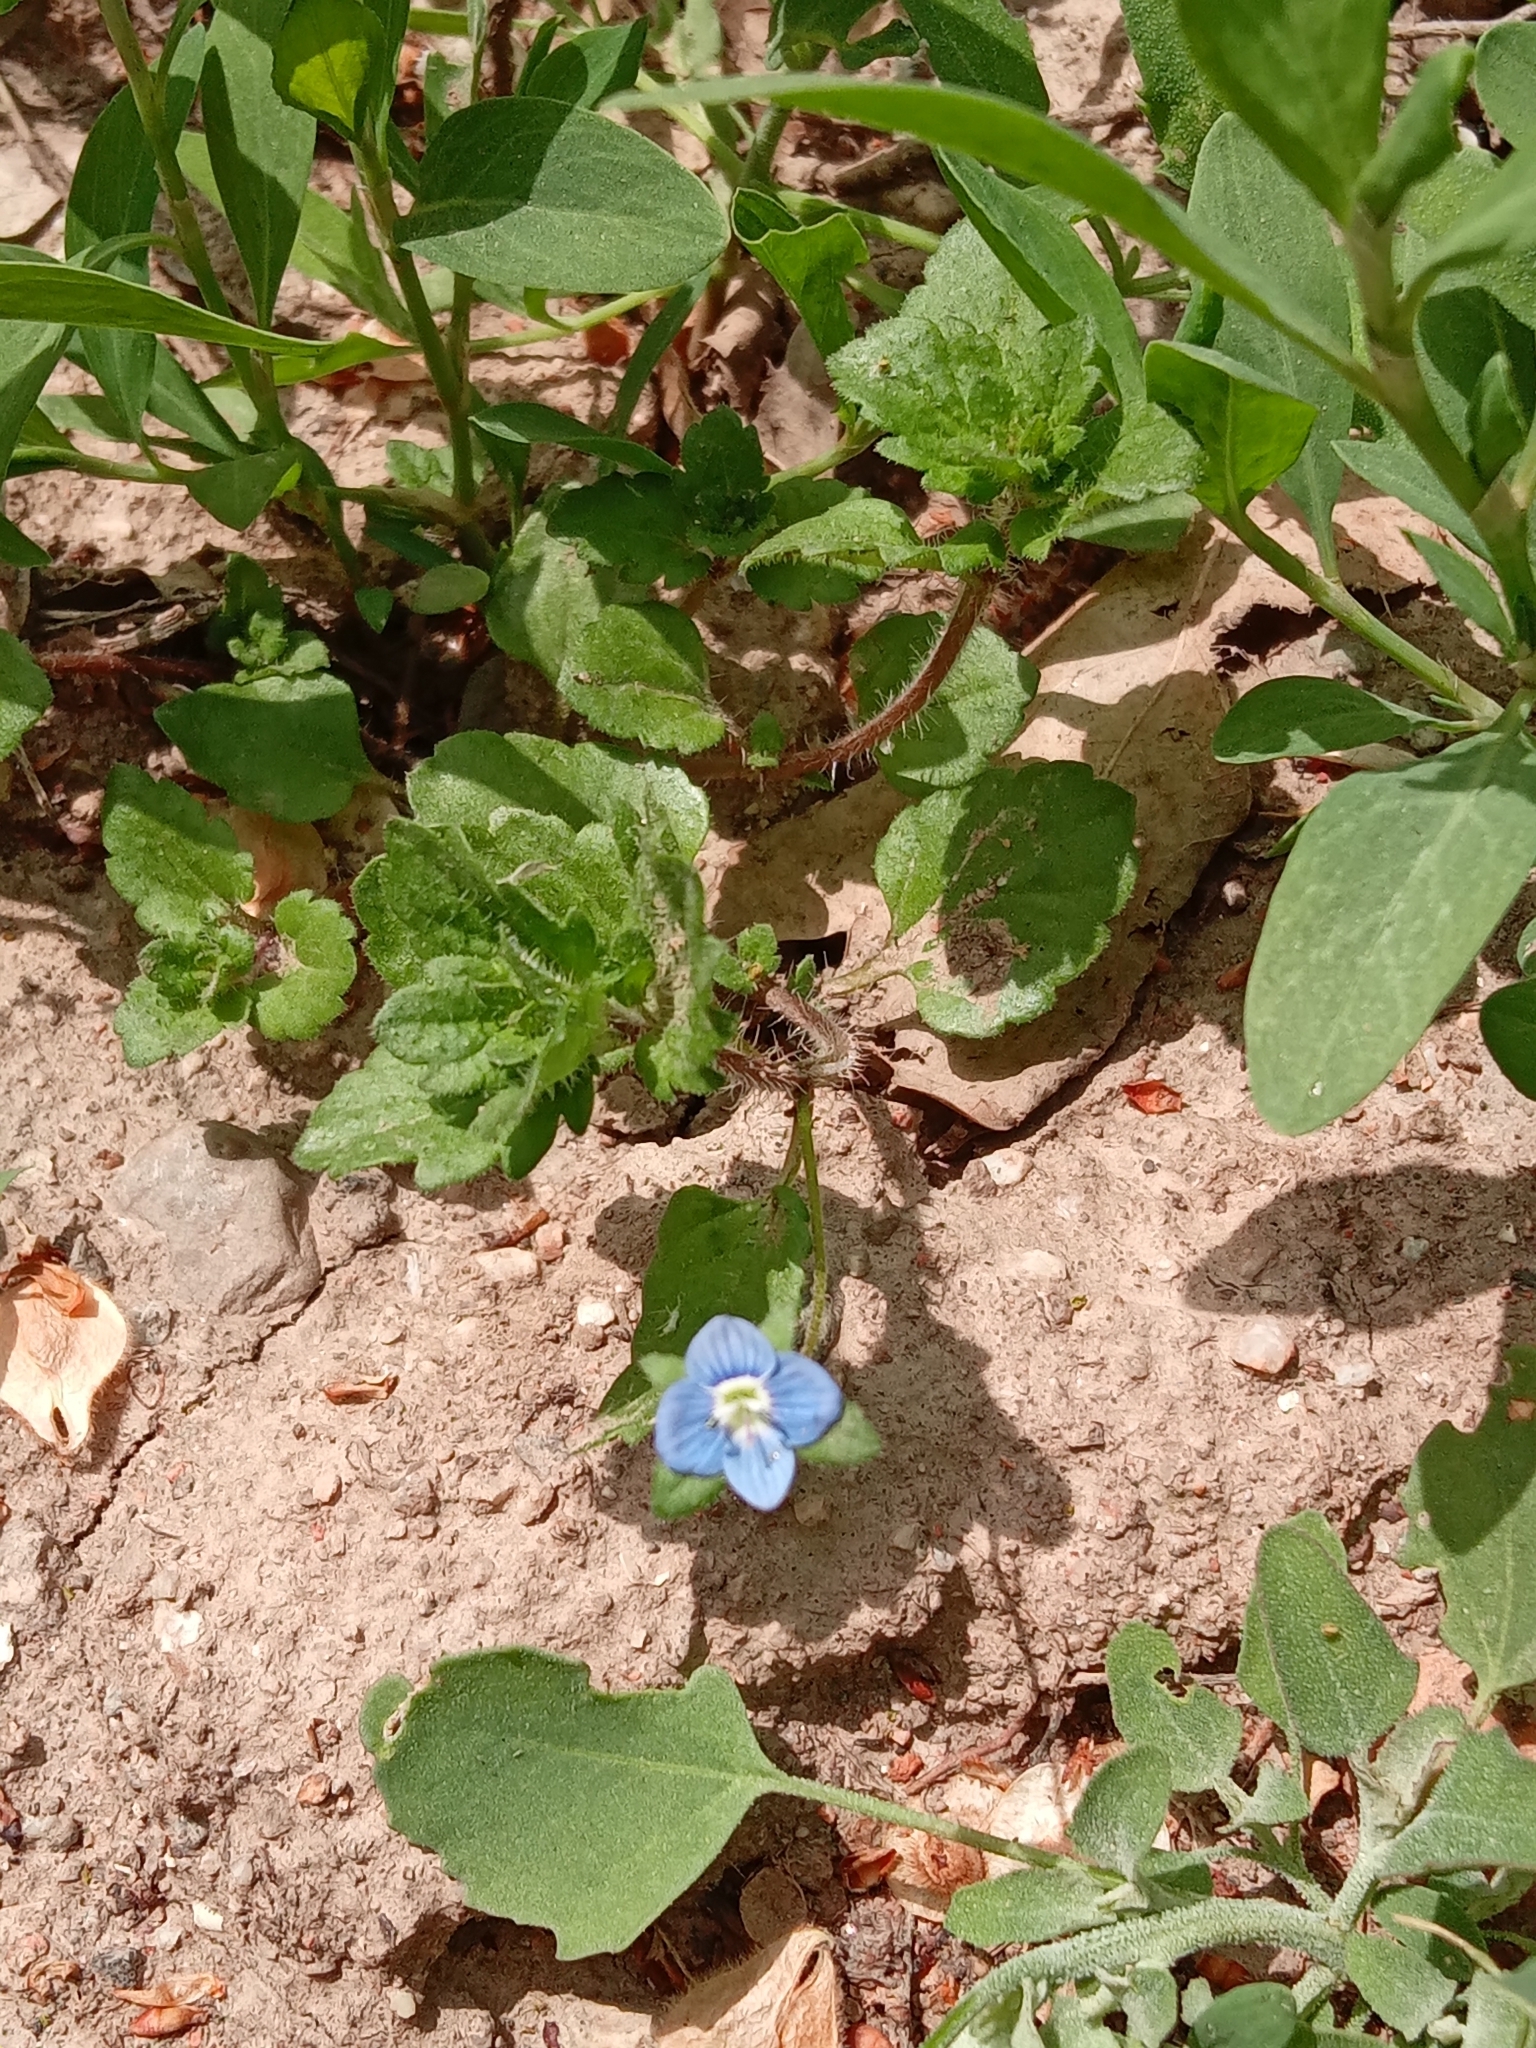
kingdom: Plantae
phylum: Tracheophyta
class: Magnoliopsida
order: Lamiales
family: Plantaginaceae
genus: Veronica
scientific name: Veronica persica
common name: Common field-speedwell
